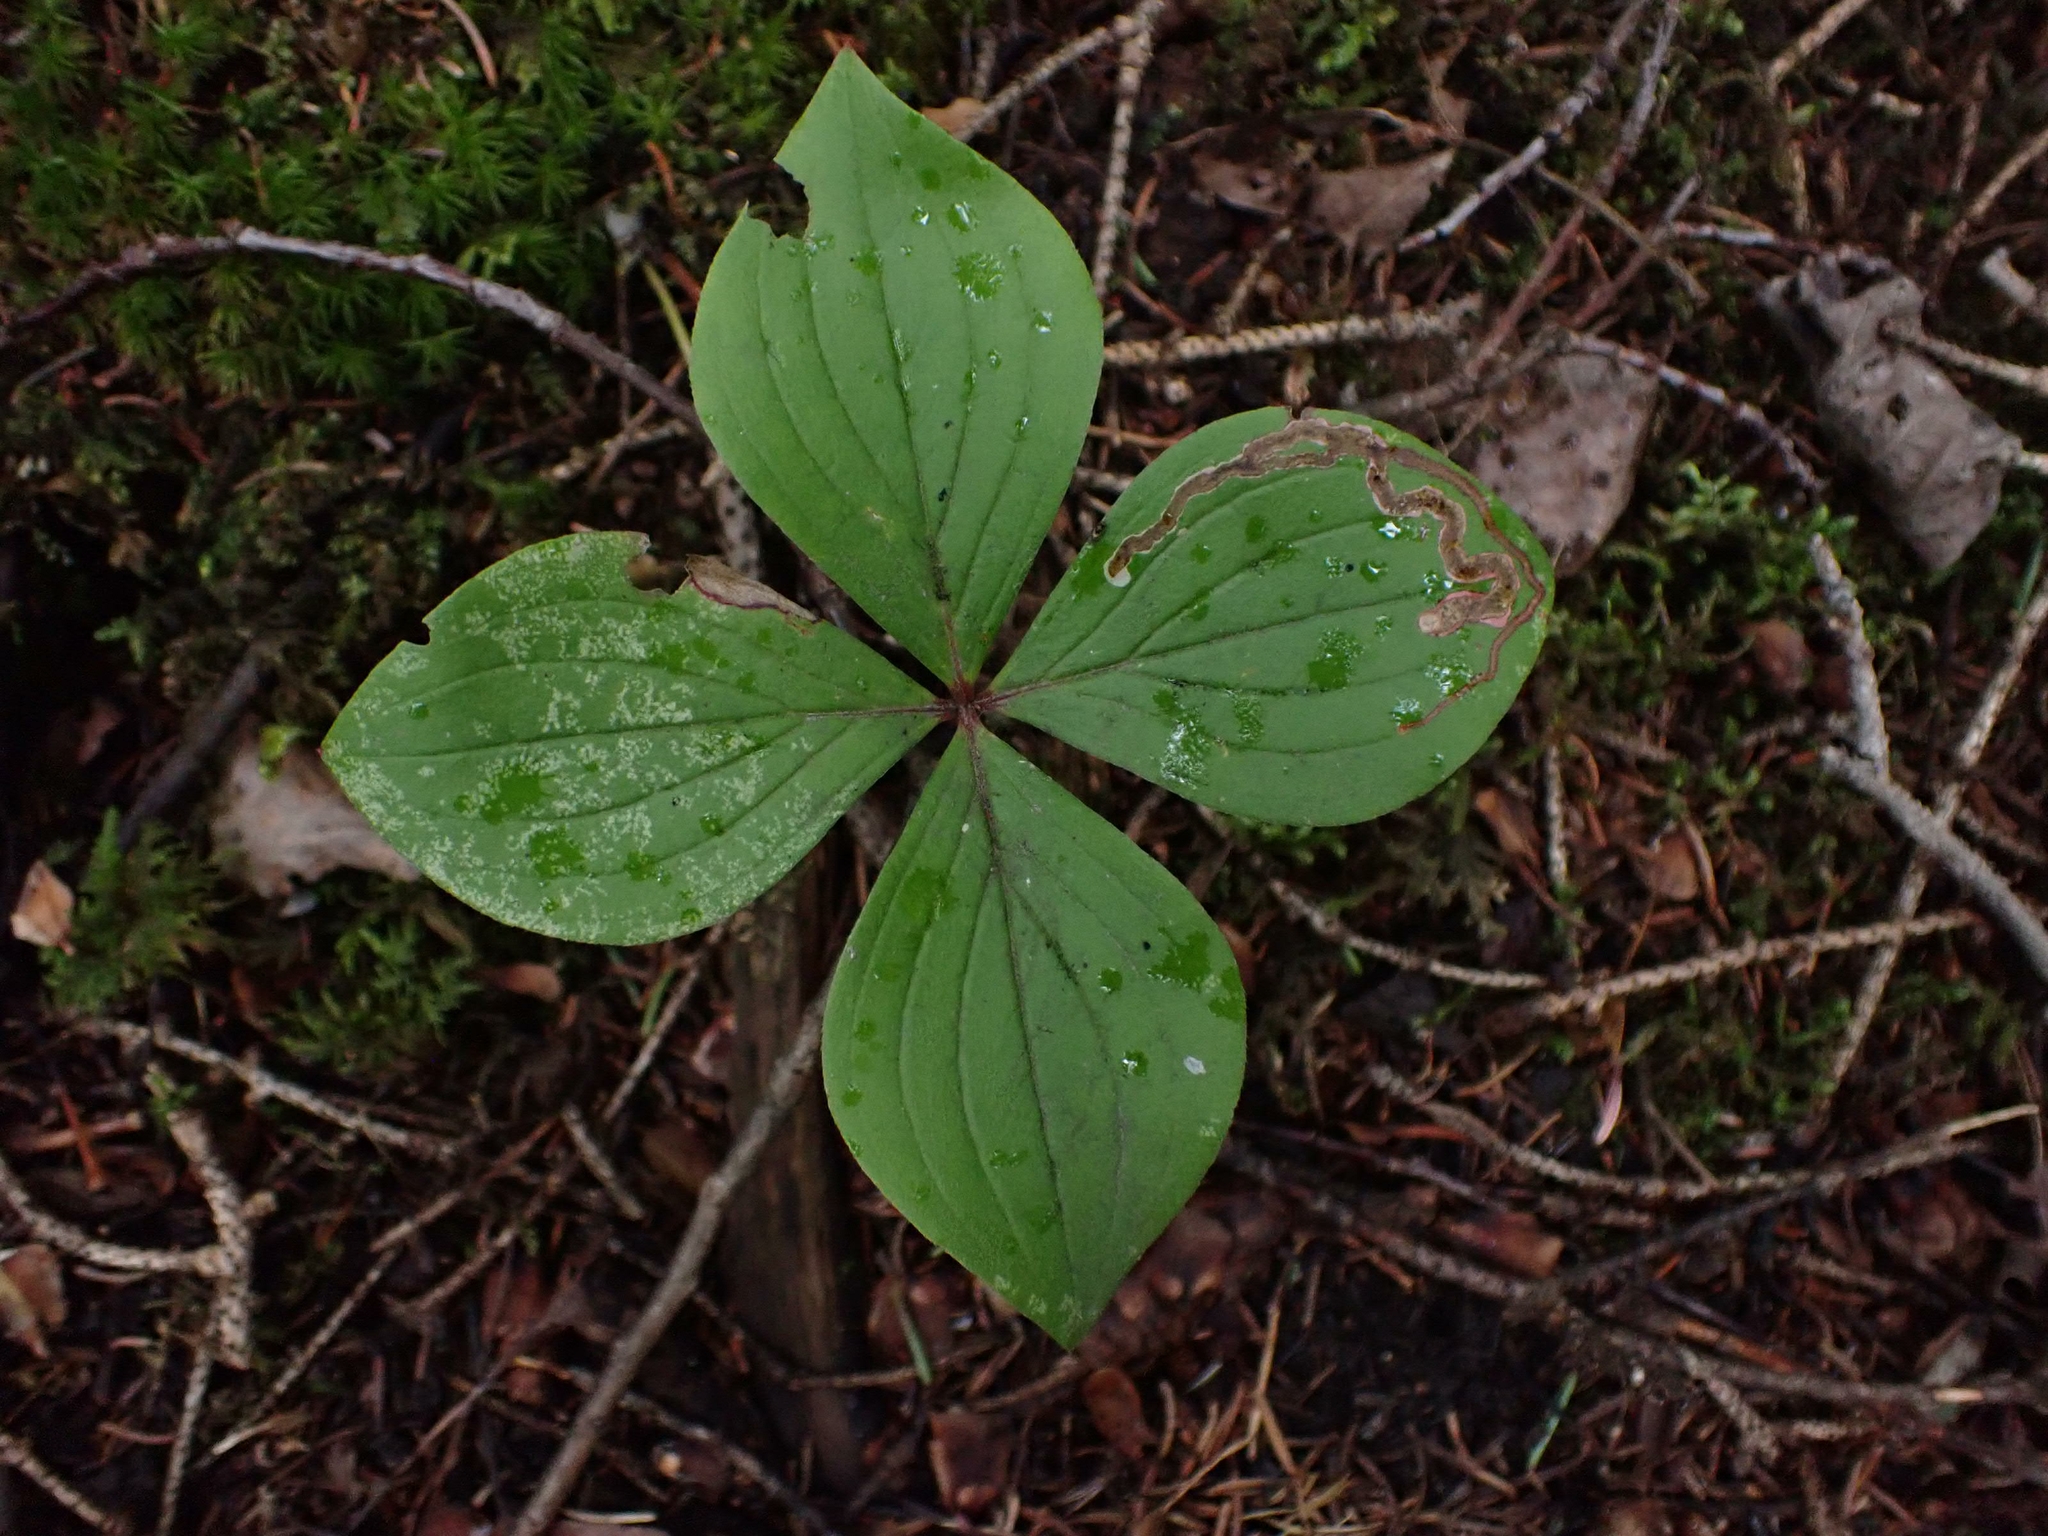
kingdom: Plantae
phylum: Tracheophyta
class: Magnoliopsida
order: Cornales
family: Cornaceae
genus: Cornus
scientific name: Cornus canadensis
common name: Creeping dogwood
